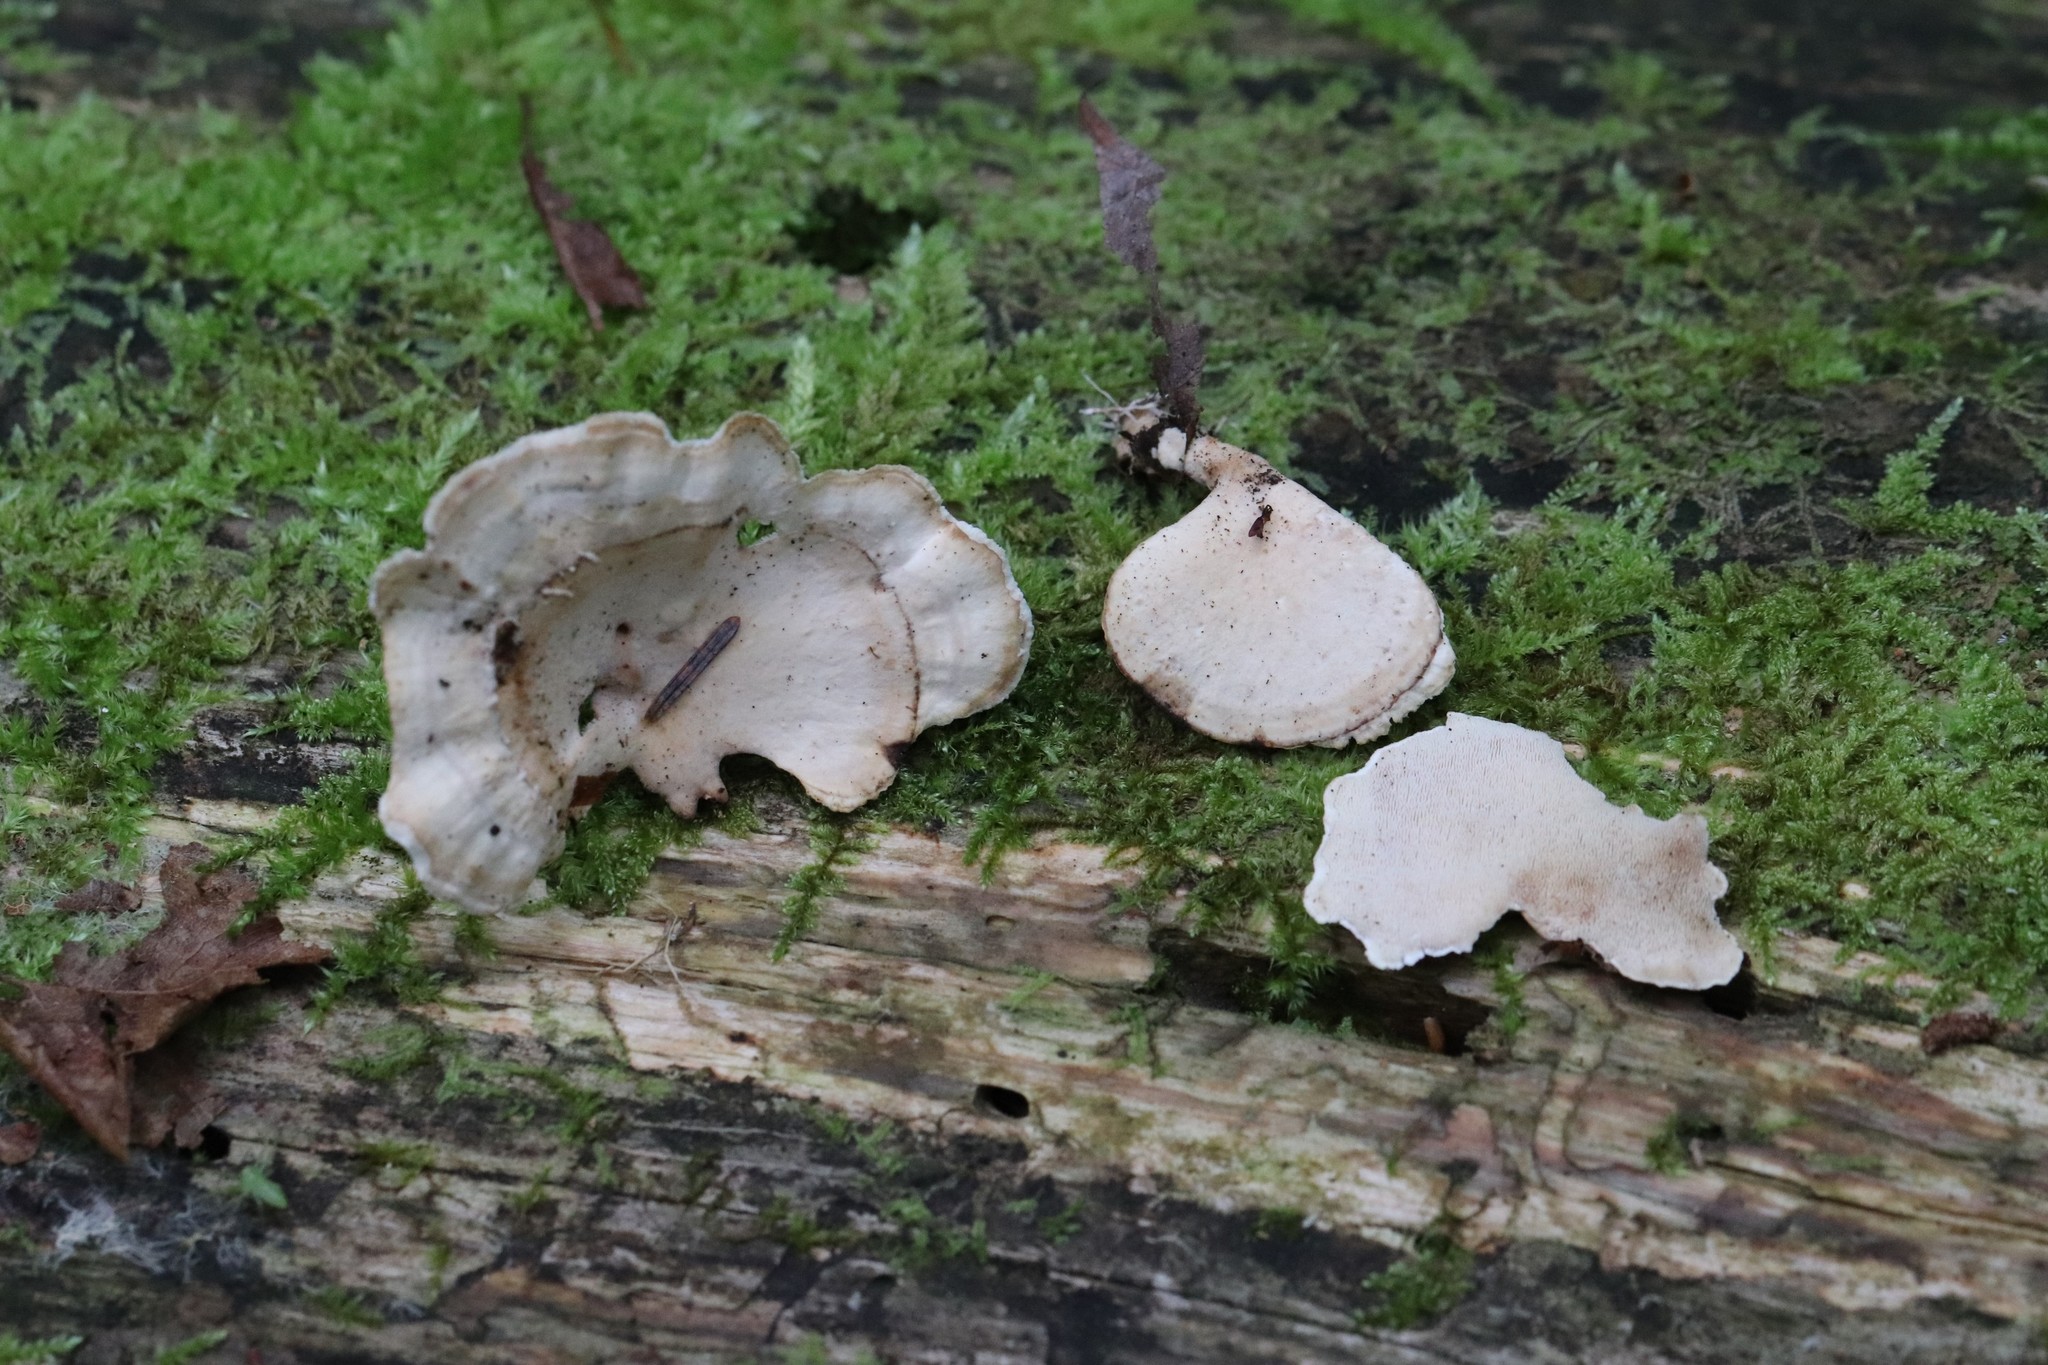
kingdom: Fungi
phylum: Basidiomycota
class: Agaricomycetes
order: Polyporales
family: Steccherinaceae
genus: Mycorrhaphium
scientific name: Mycorrhaphium adustum
